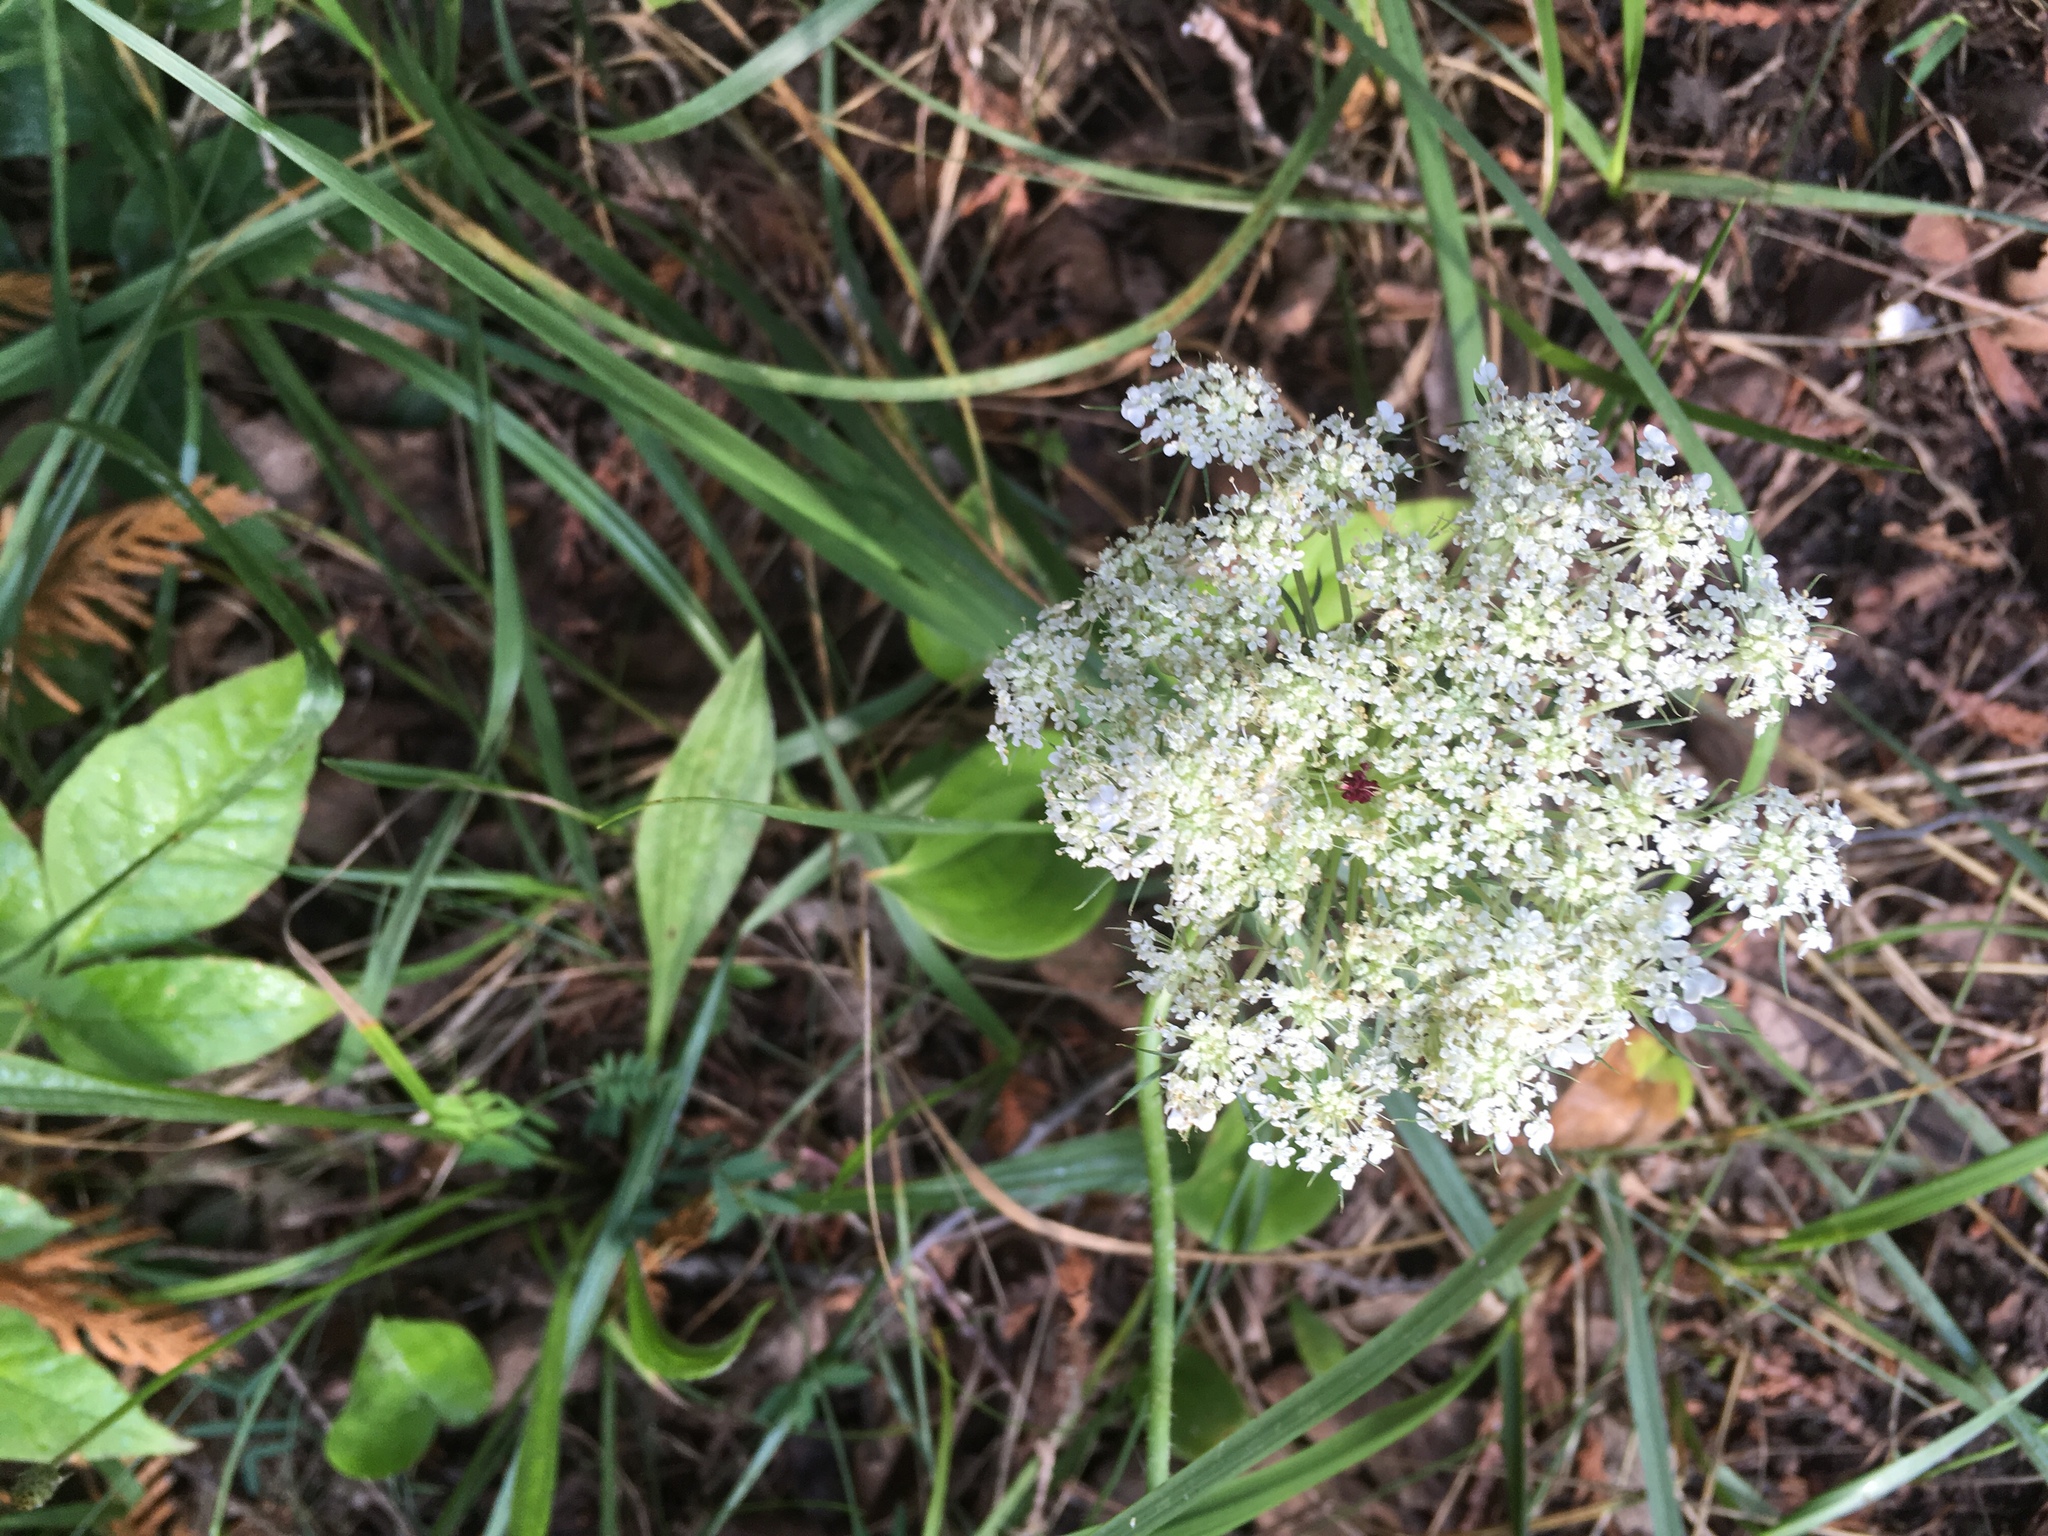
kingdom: Plantae
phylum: Tracheophyta
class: Magnoliopsida
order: Apiales
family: Apiaceae
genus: Daucus
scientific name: Daucus carota
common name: Wild carrot
